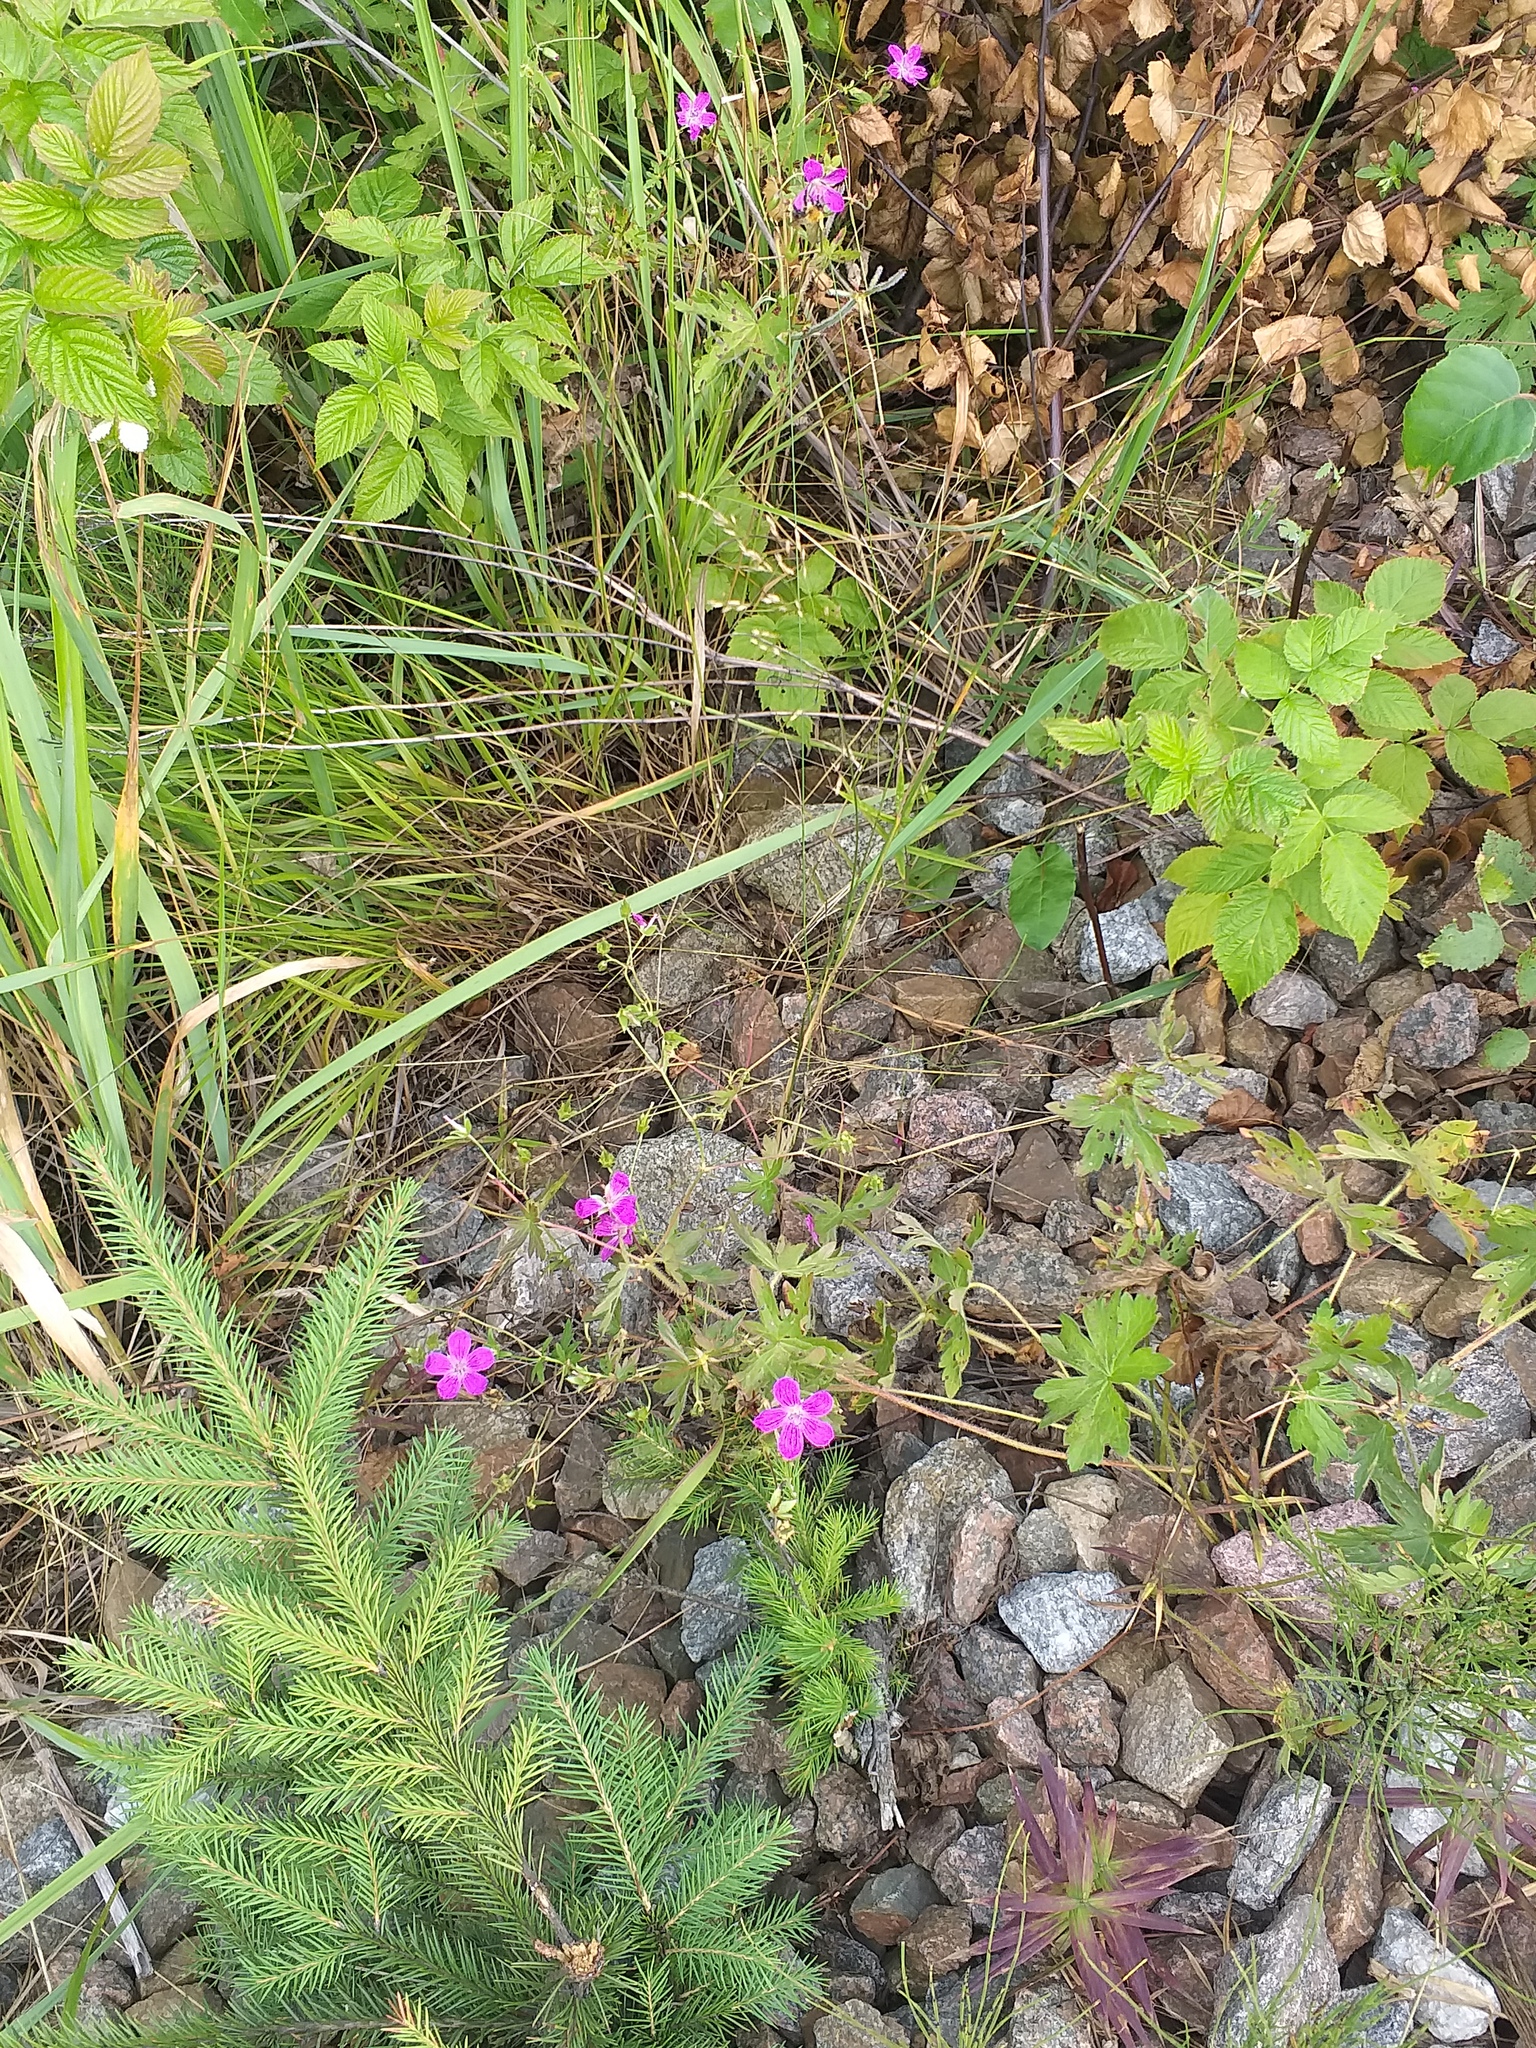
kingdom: Plantae
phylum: Tracheophyta
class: Magnoliopsida
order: Geraniales
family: Geraniaceae
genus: Geranium
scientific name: Geranium palustre
